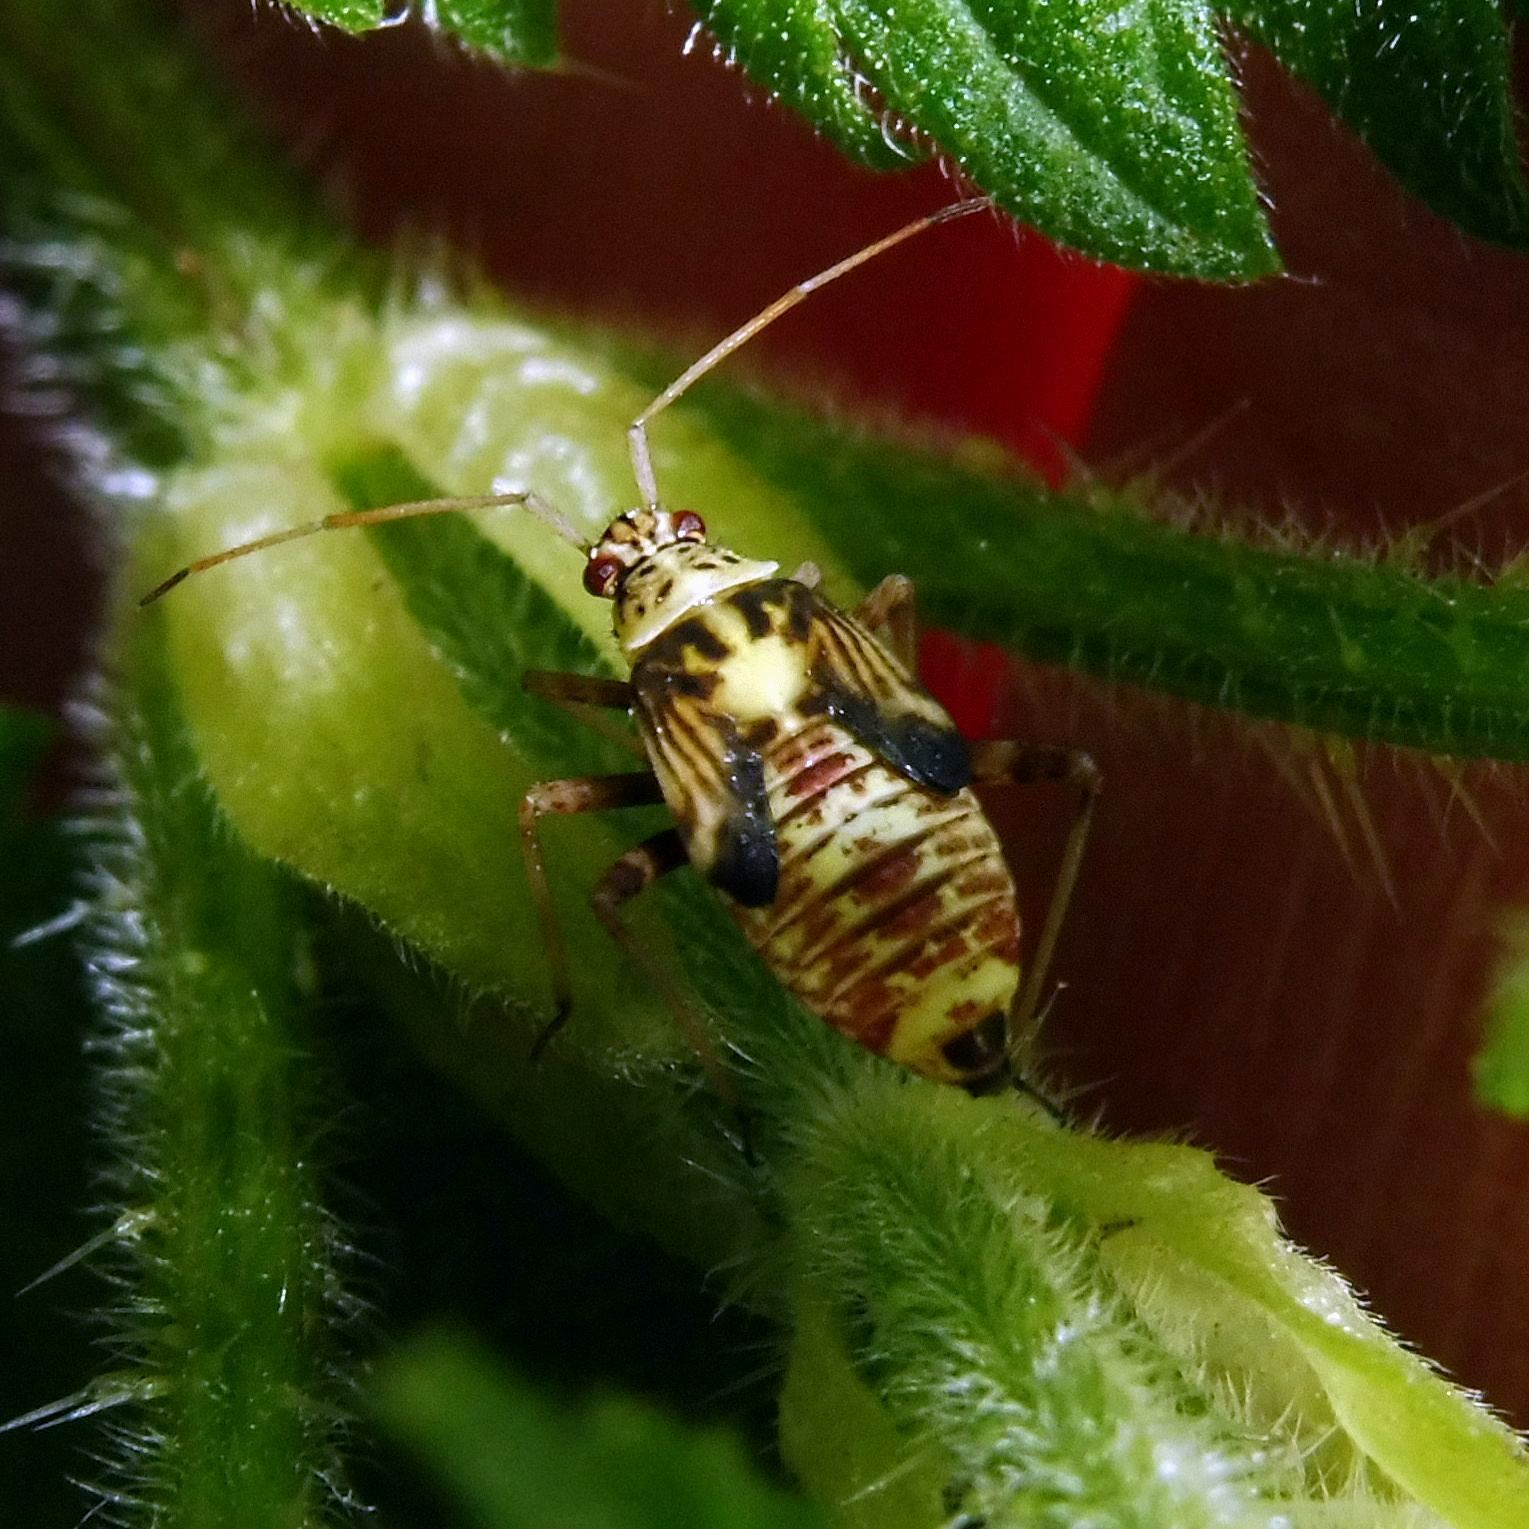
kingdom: Animalia
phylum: Arthropoda
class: Insecta
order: Hemiptera
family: Miridae
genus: Rhabdomiris
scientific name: Rhabdomiris striatellus
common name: Plant bug
